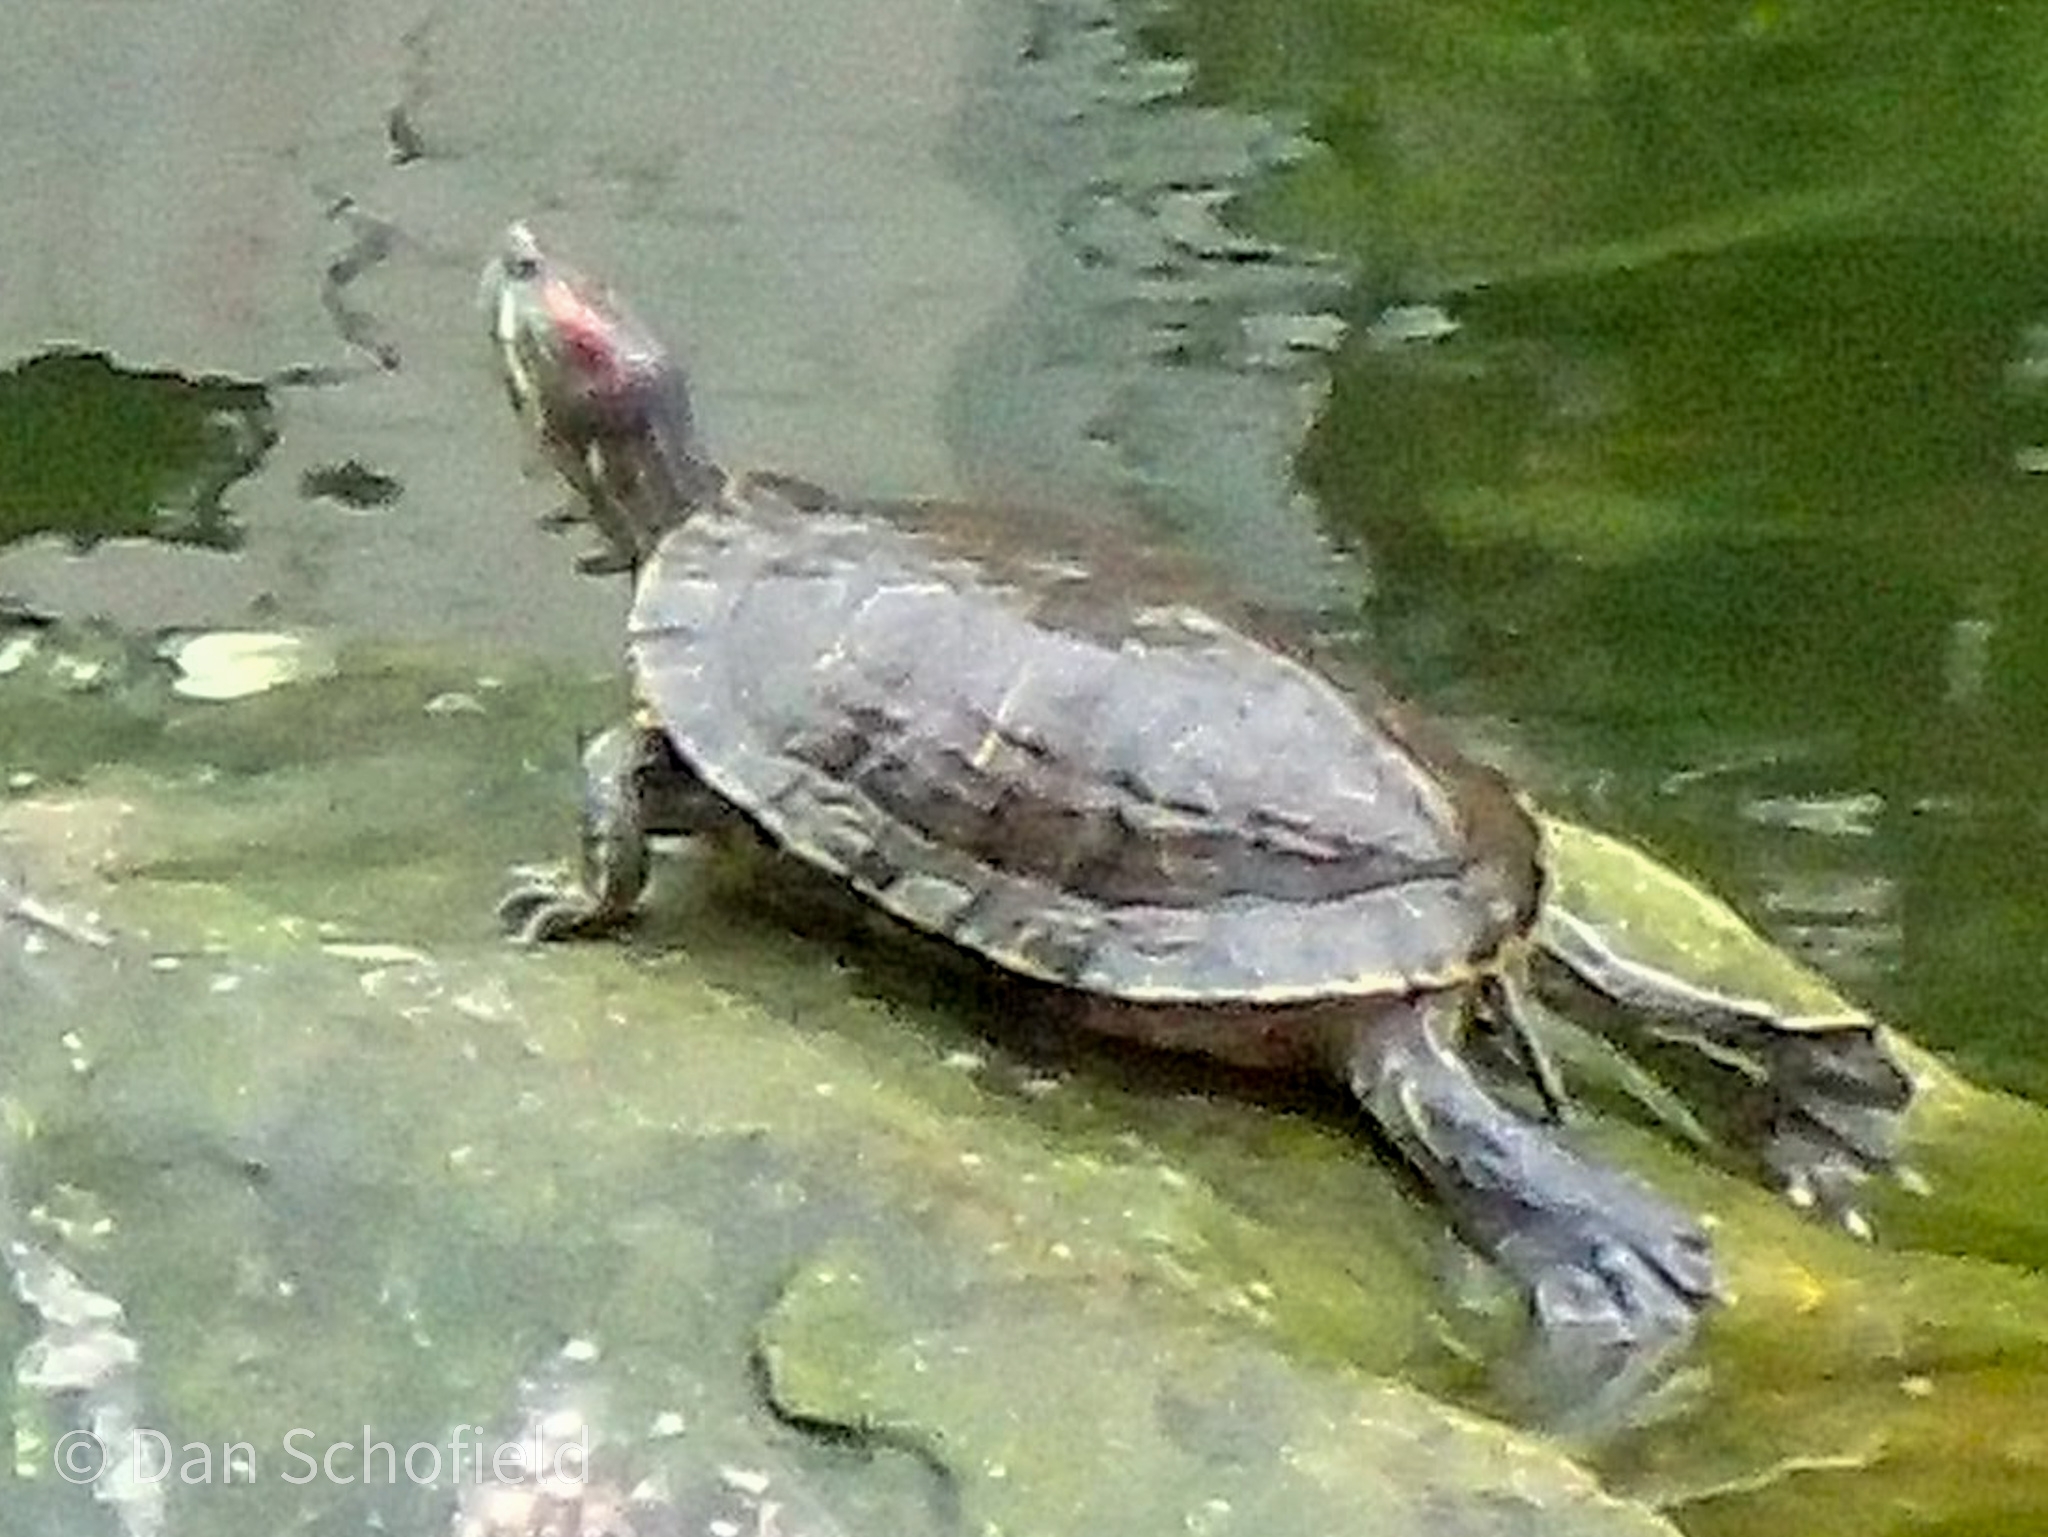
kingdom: Animalia
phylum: Chordata
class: Testudines
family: Emydidae
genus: Trachemys
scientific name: Trachemys scripta
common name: Slider
